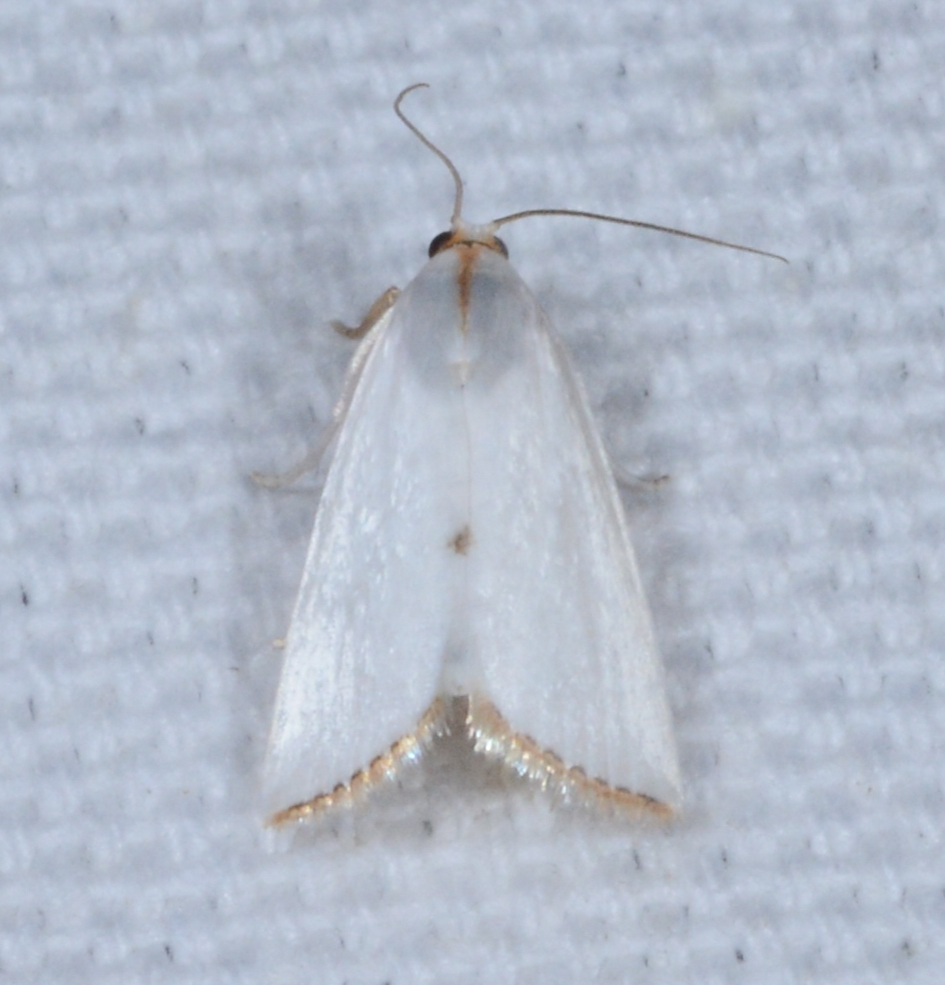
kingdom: Animalia
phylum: Arthropoda
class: Insecta
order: Lepidoptera
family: Crambidae
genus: Argyria
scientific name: Argyria nivalis
